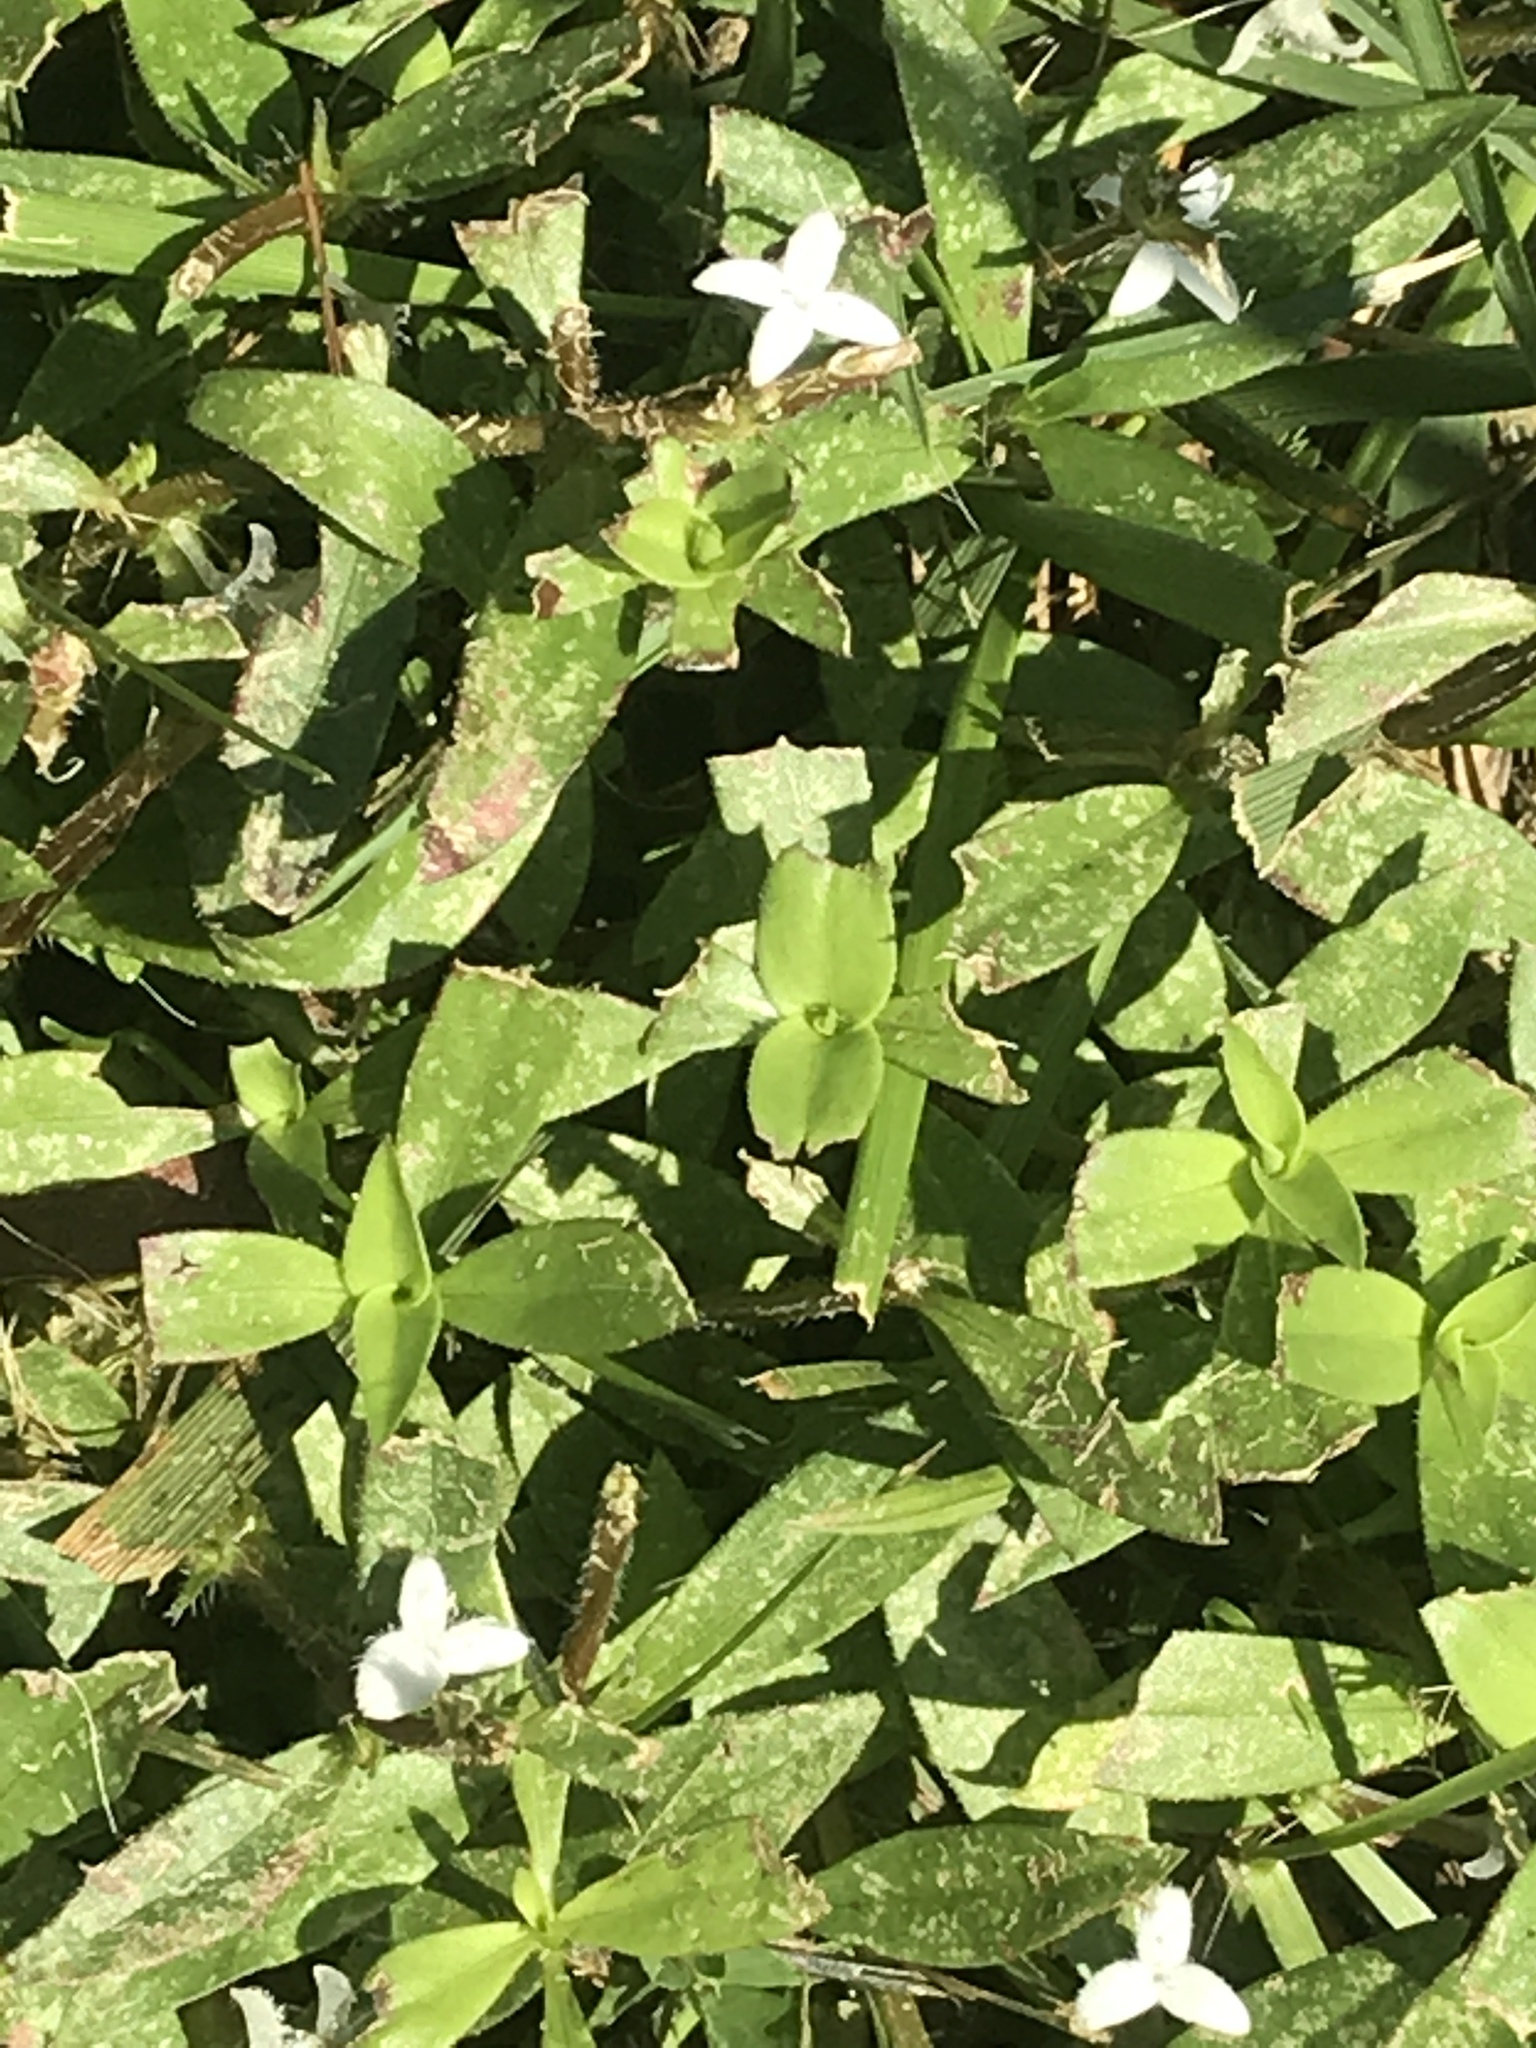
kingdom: Plantae
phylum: Tracheophyta
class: Magnoliopsida
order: Gentianales
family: Rubiaceae
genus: Diodia
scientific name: Diodia virginiana
